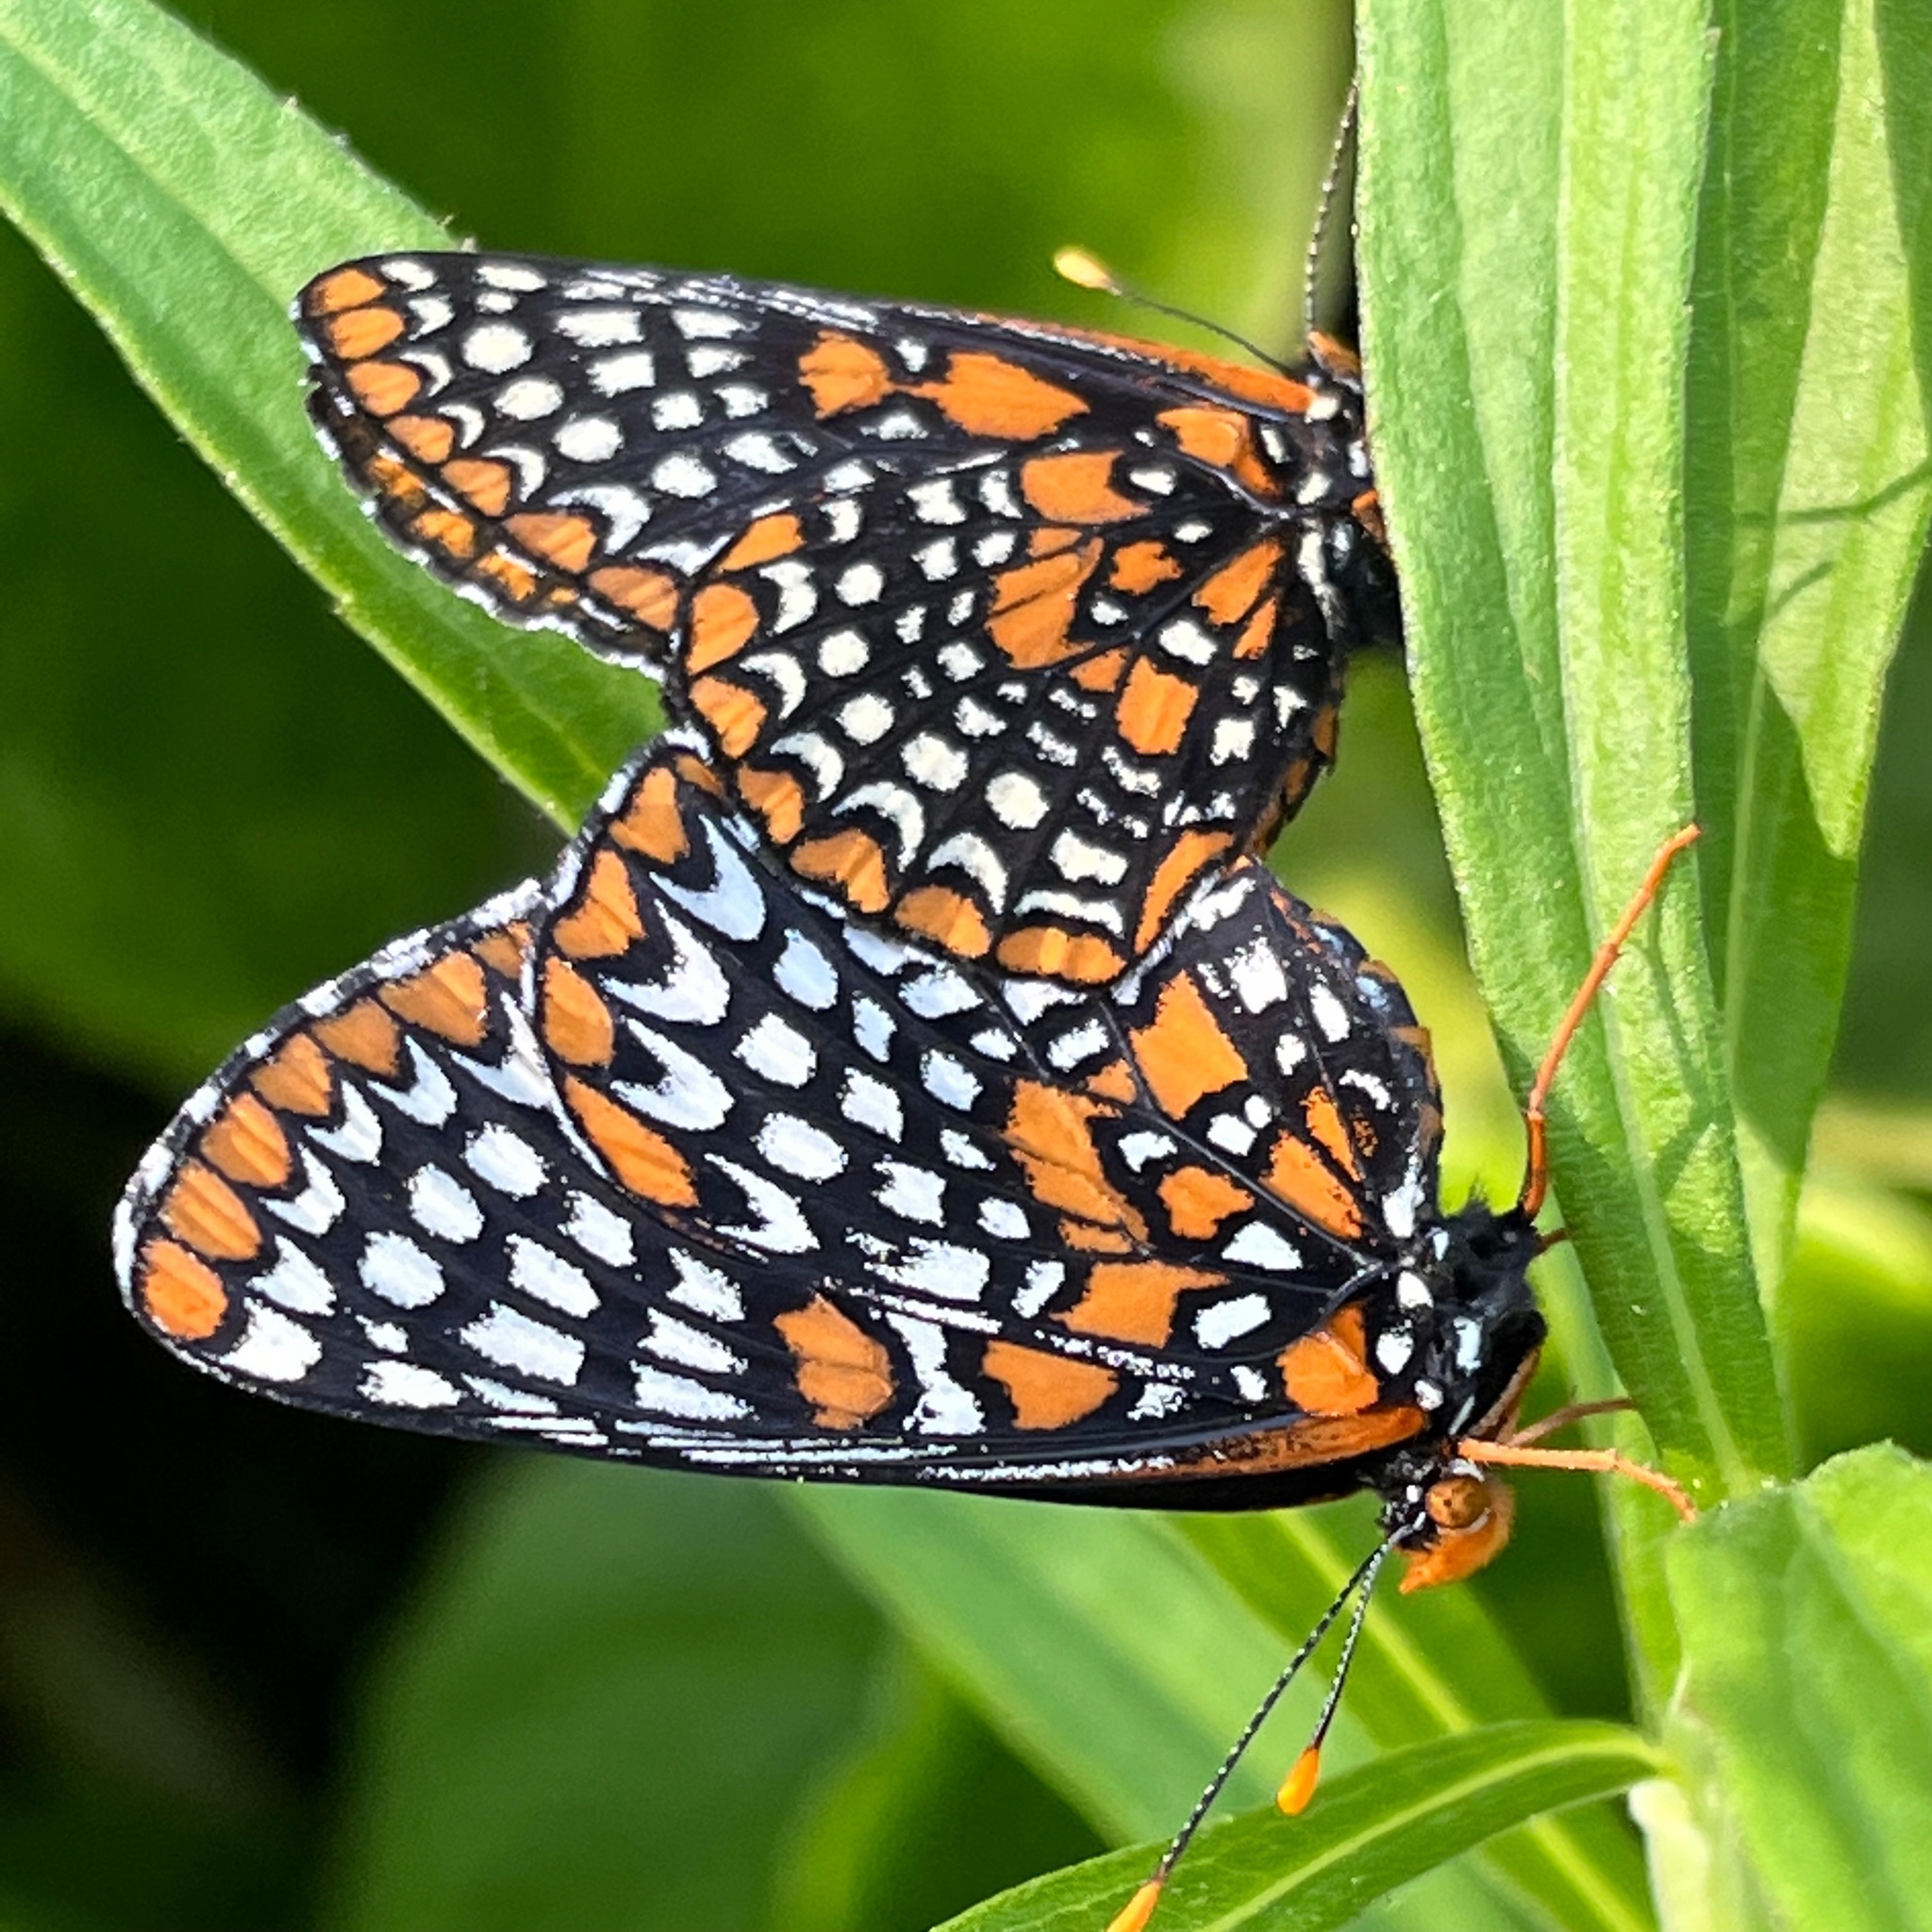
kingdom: Animalia
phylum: Arthropoda
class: Insecta
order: Lepidoptera
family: Nymphalidae
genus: Euphydryas
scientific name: Euphydryas phaeton
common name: Baltimore checkerspot
